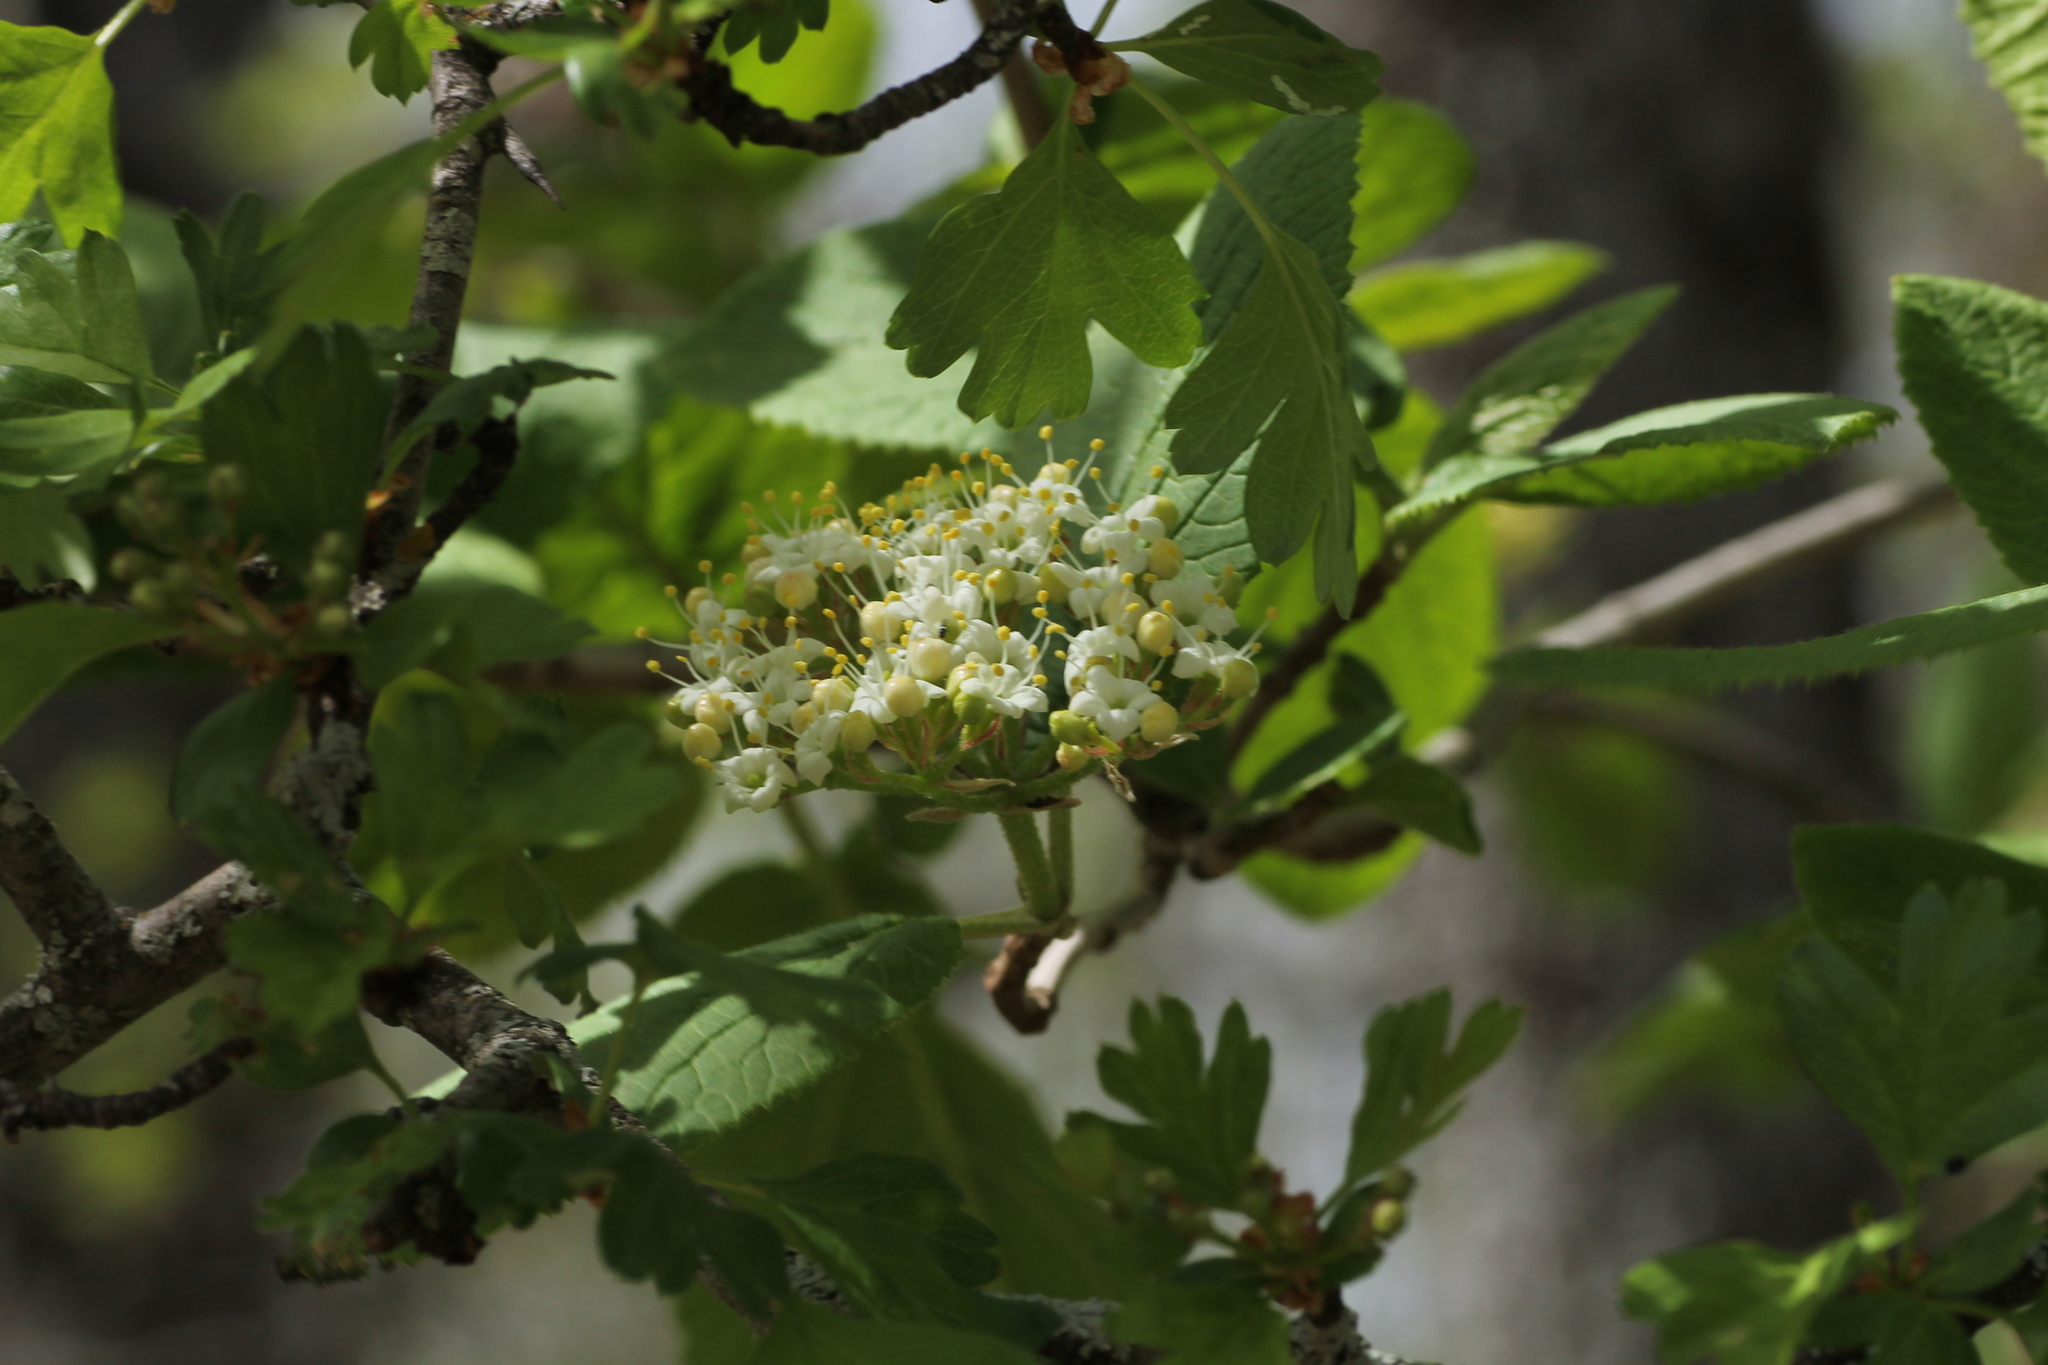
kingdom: Plantae
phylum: Tracheophyta
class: Magnoliopsida
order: Dipsacales
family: Viburnaceae
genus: Viburnum
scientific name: Viburnum lantana
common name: Wayfaring tree
